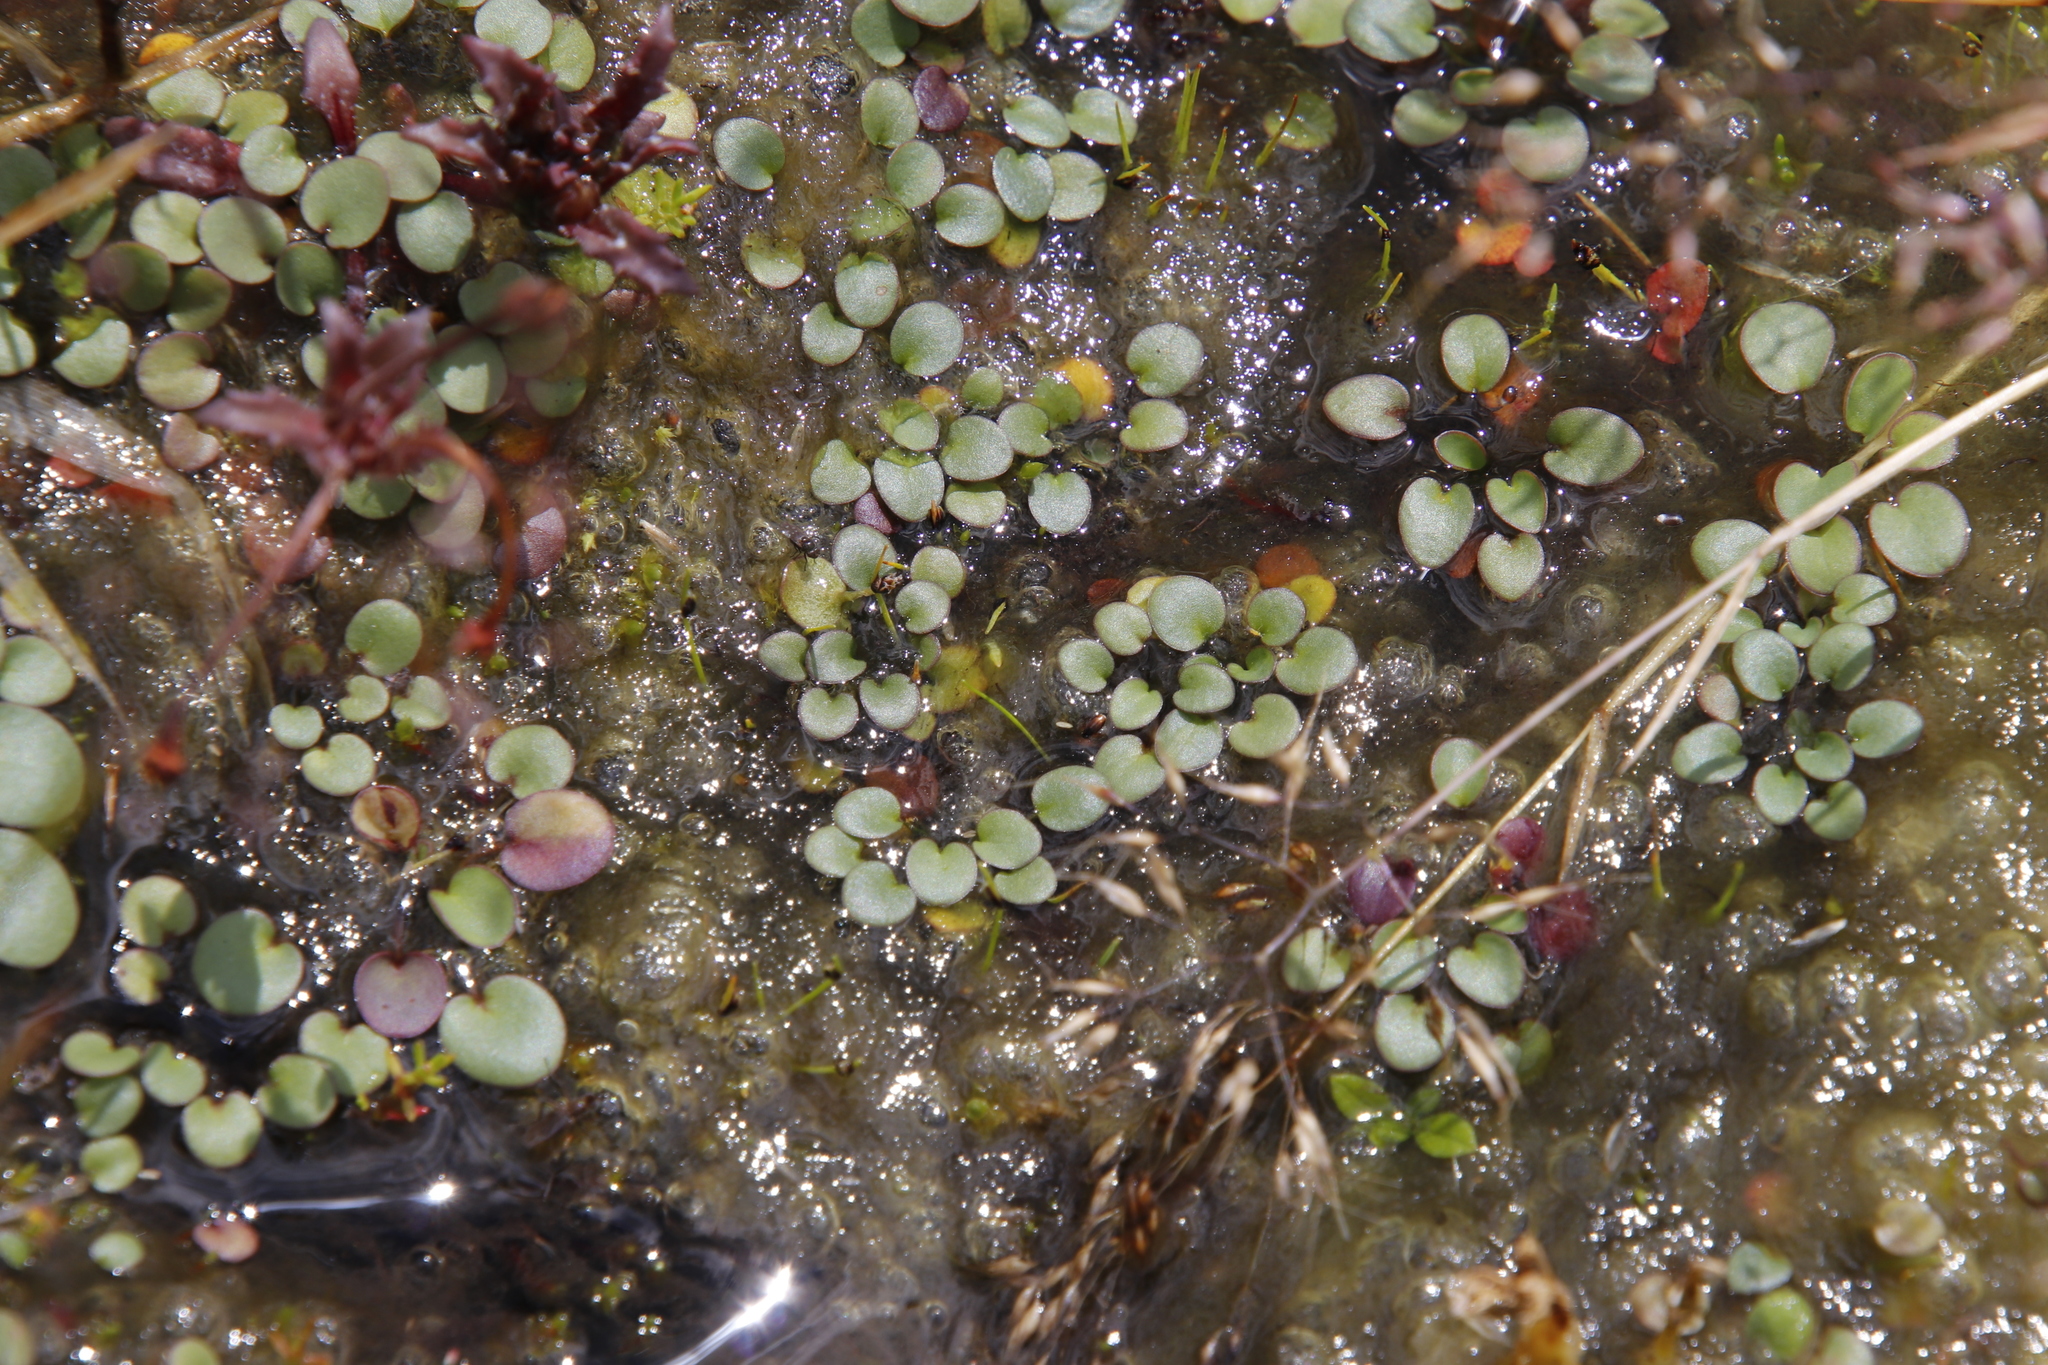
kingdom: Plantae
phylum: Tracheophyta
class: Magnoliopsida
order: Lamiales
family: Scrophulariaceae
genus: Limosella
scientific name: Limosella vesiculosa
